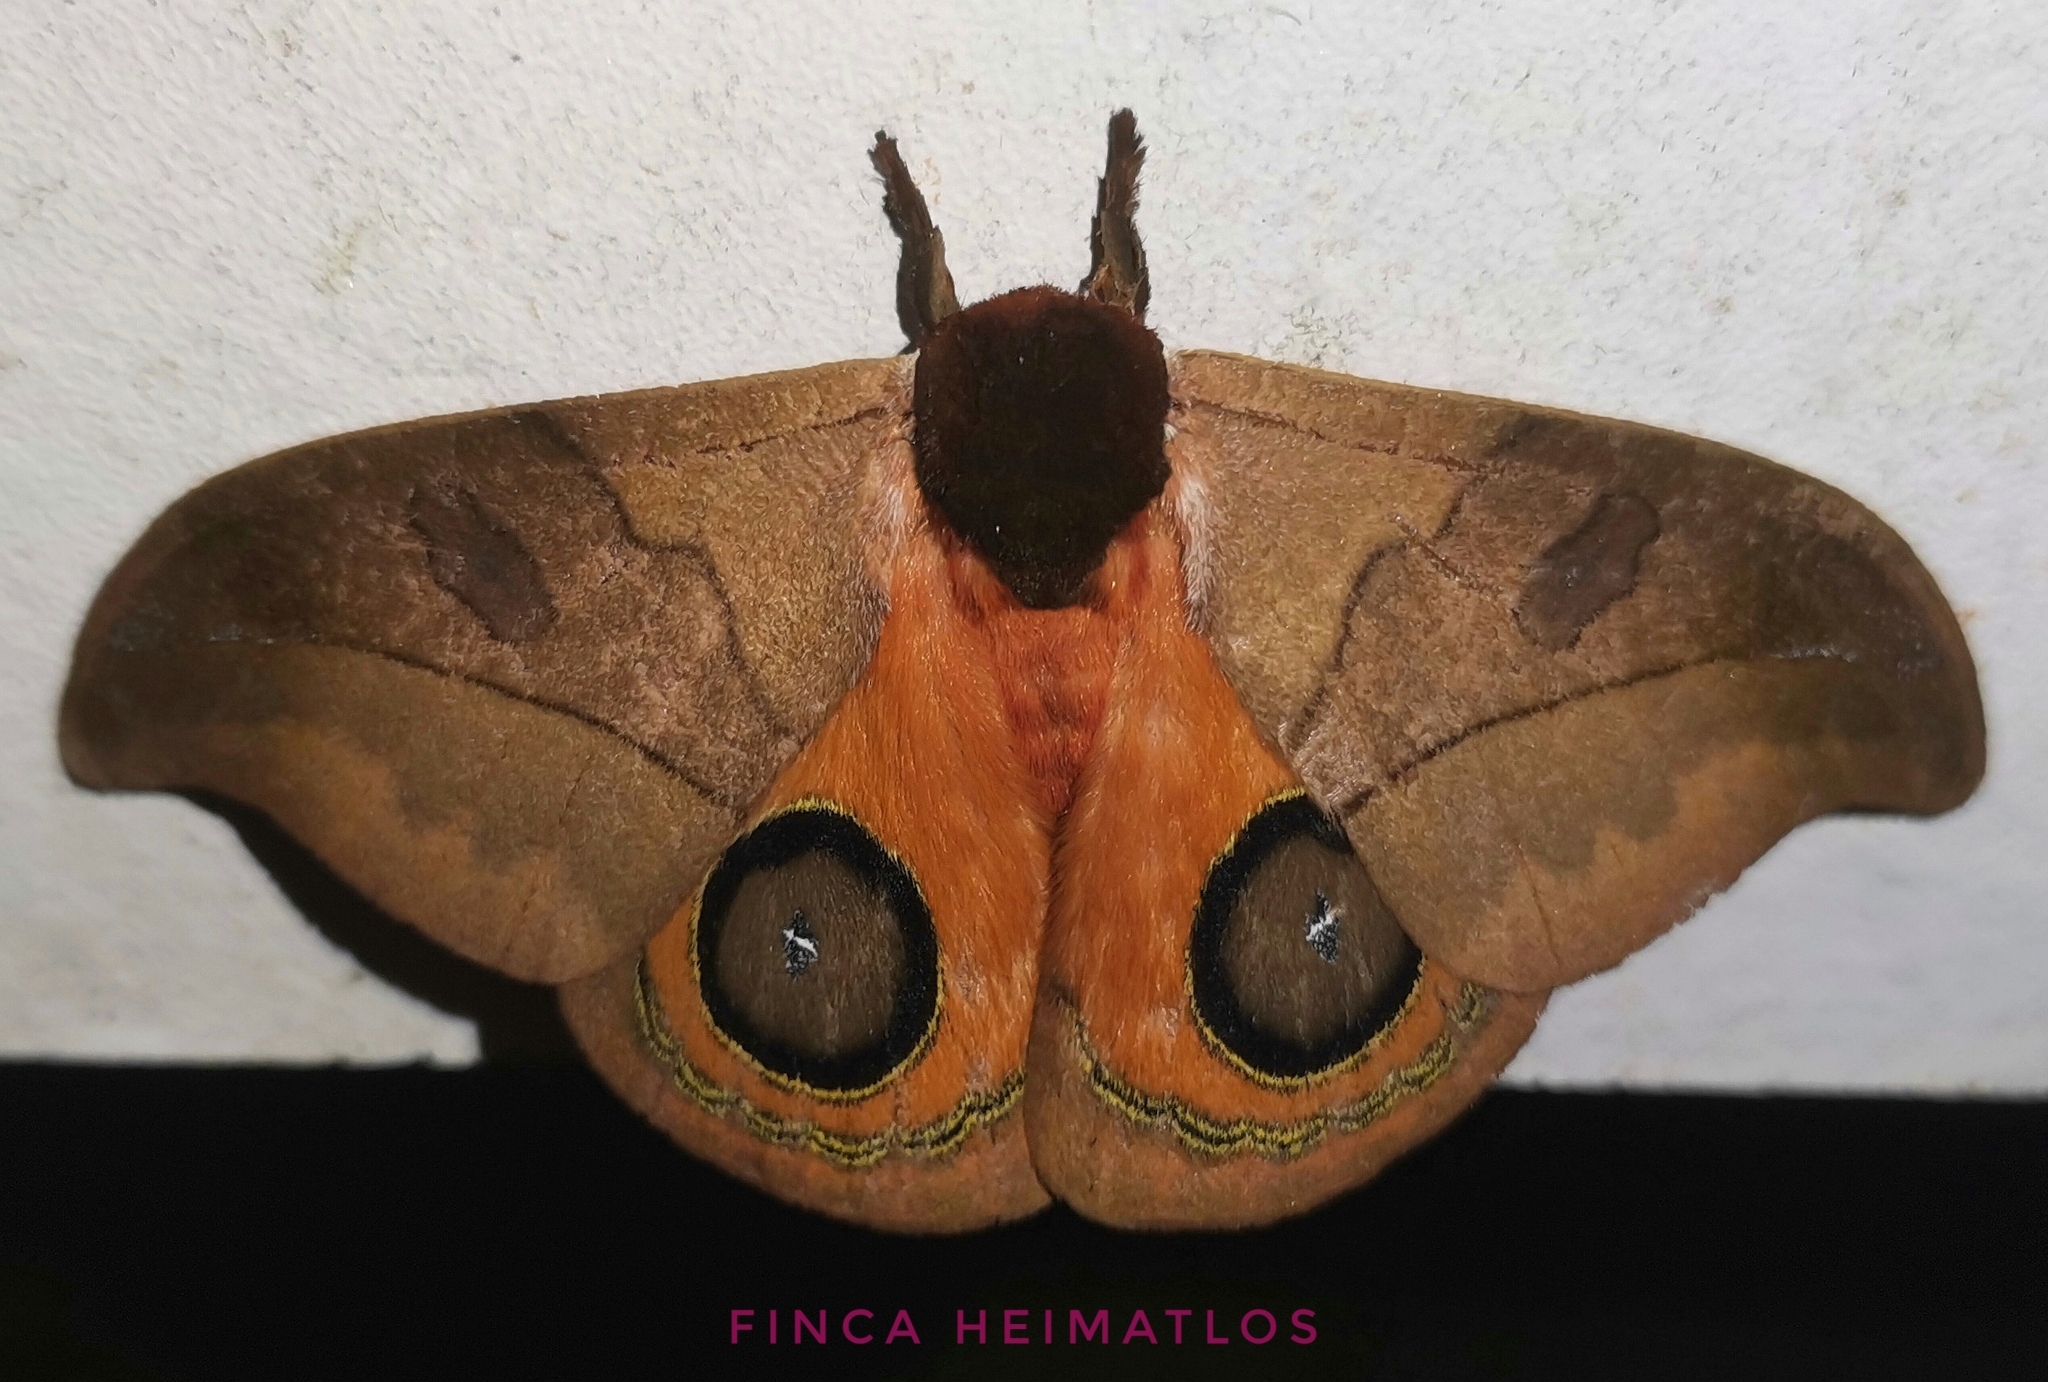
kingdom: Animalia
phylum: Arthropoda
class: Insecta
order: Lepidoptera
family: Saturniidae
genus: Automeris
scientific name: Automeris hamata
